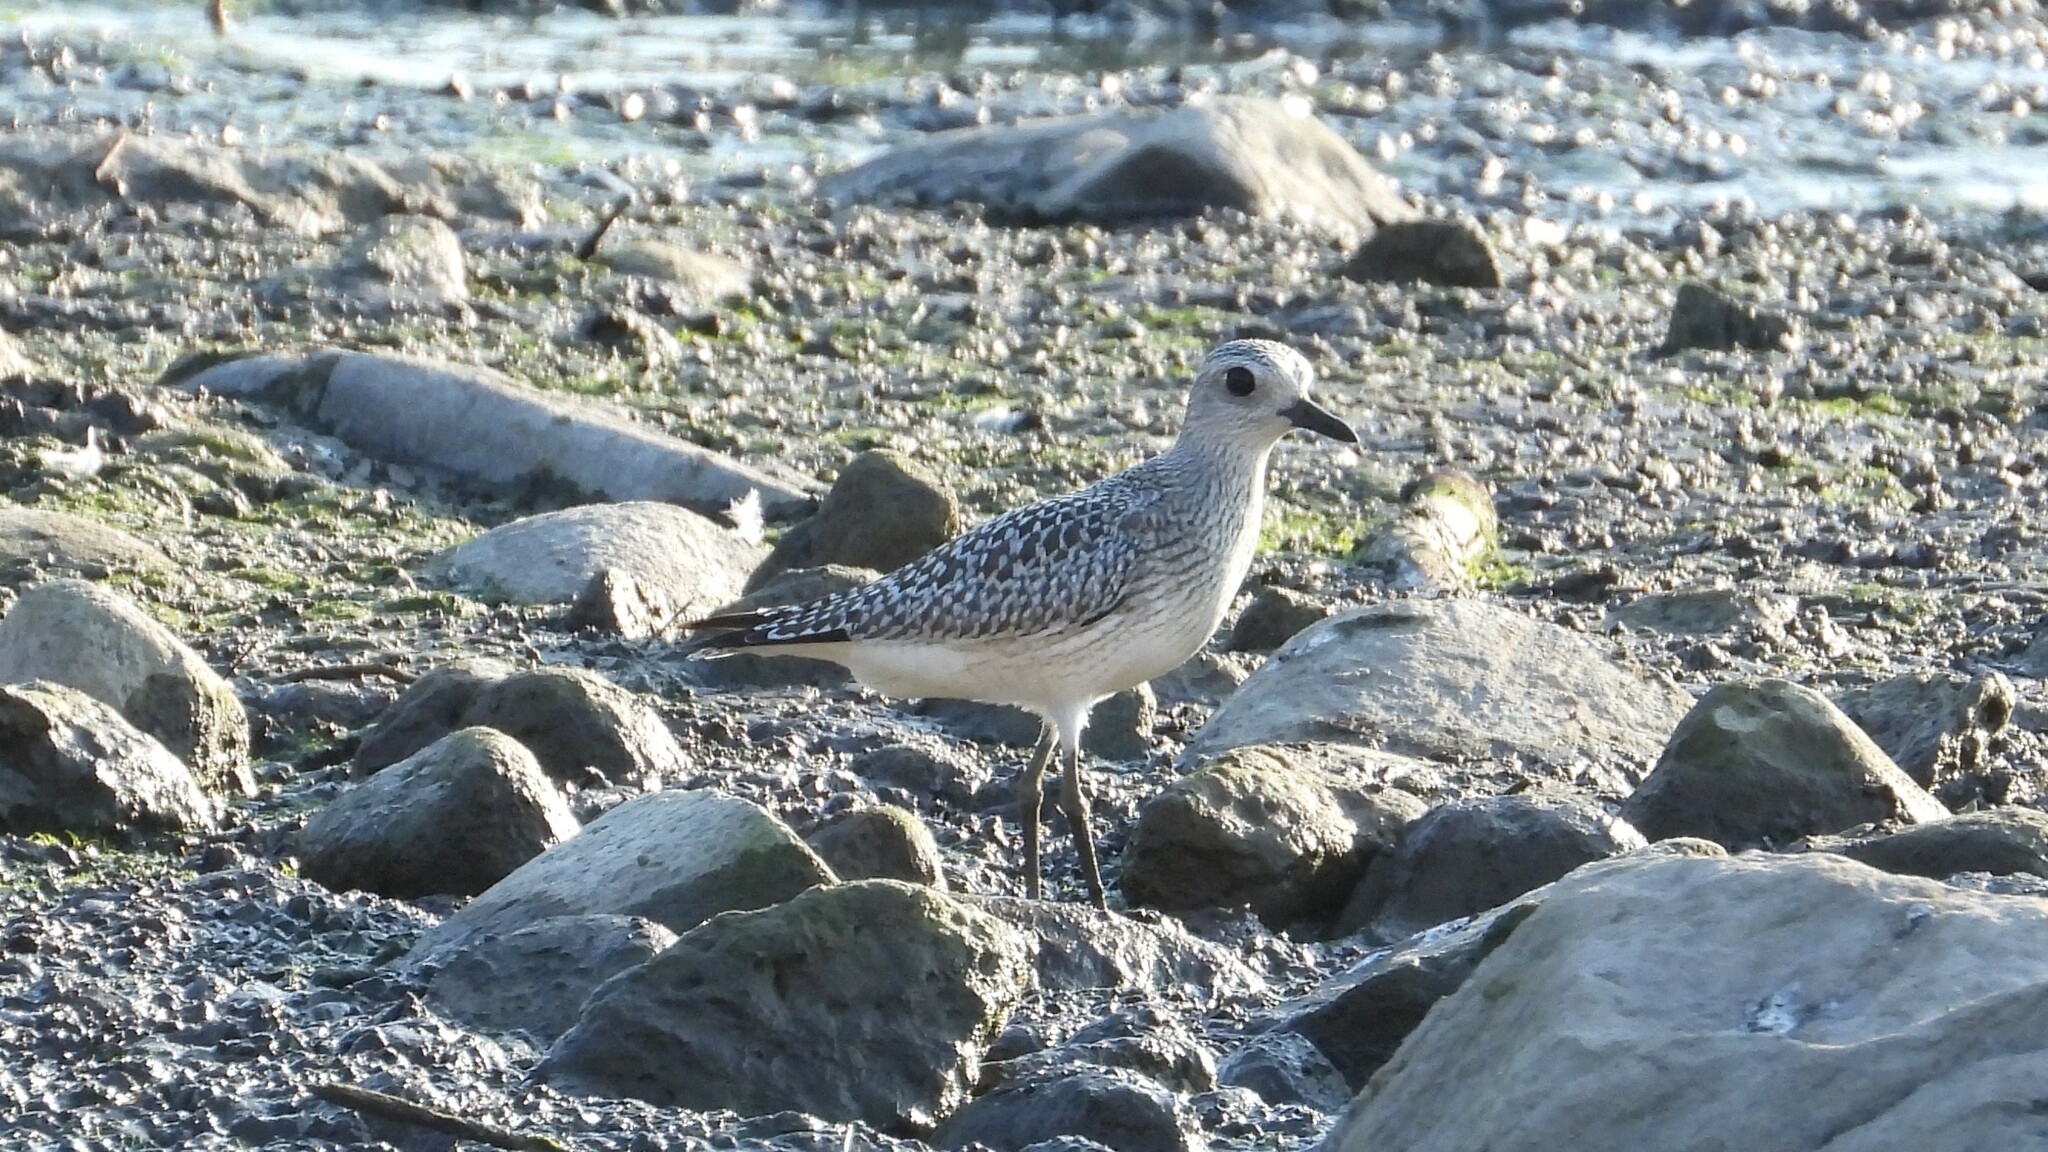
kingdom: Animalia
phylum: Chordata
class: Aves
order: Charadriiformes
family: Charadriidae
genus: Pluvialis
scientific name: Pluvialis squatarola
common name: Grey plover
